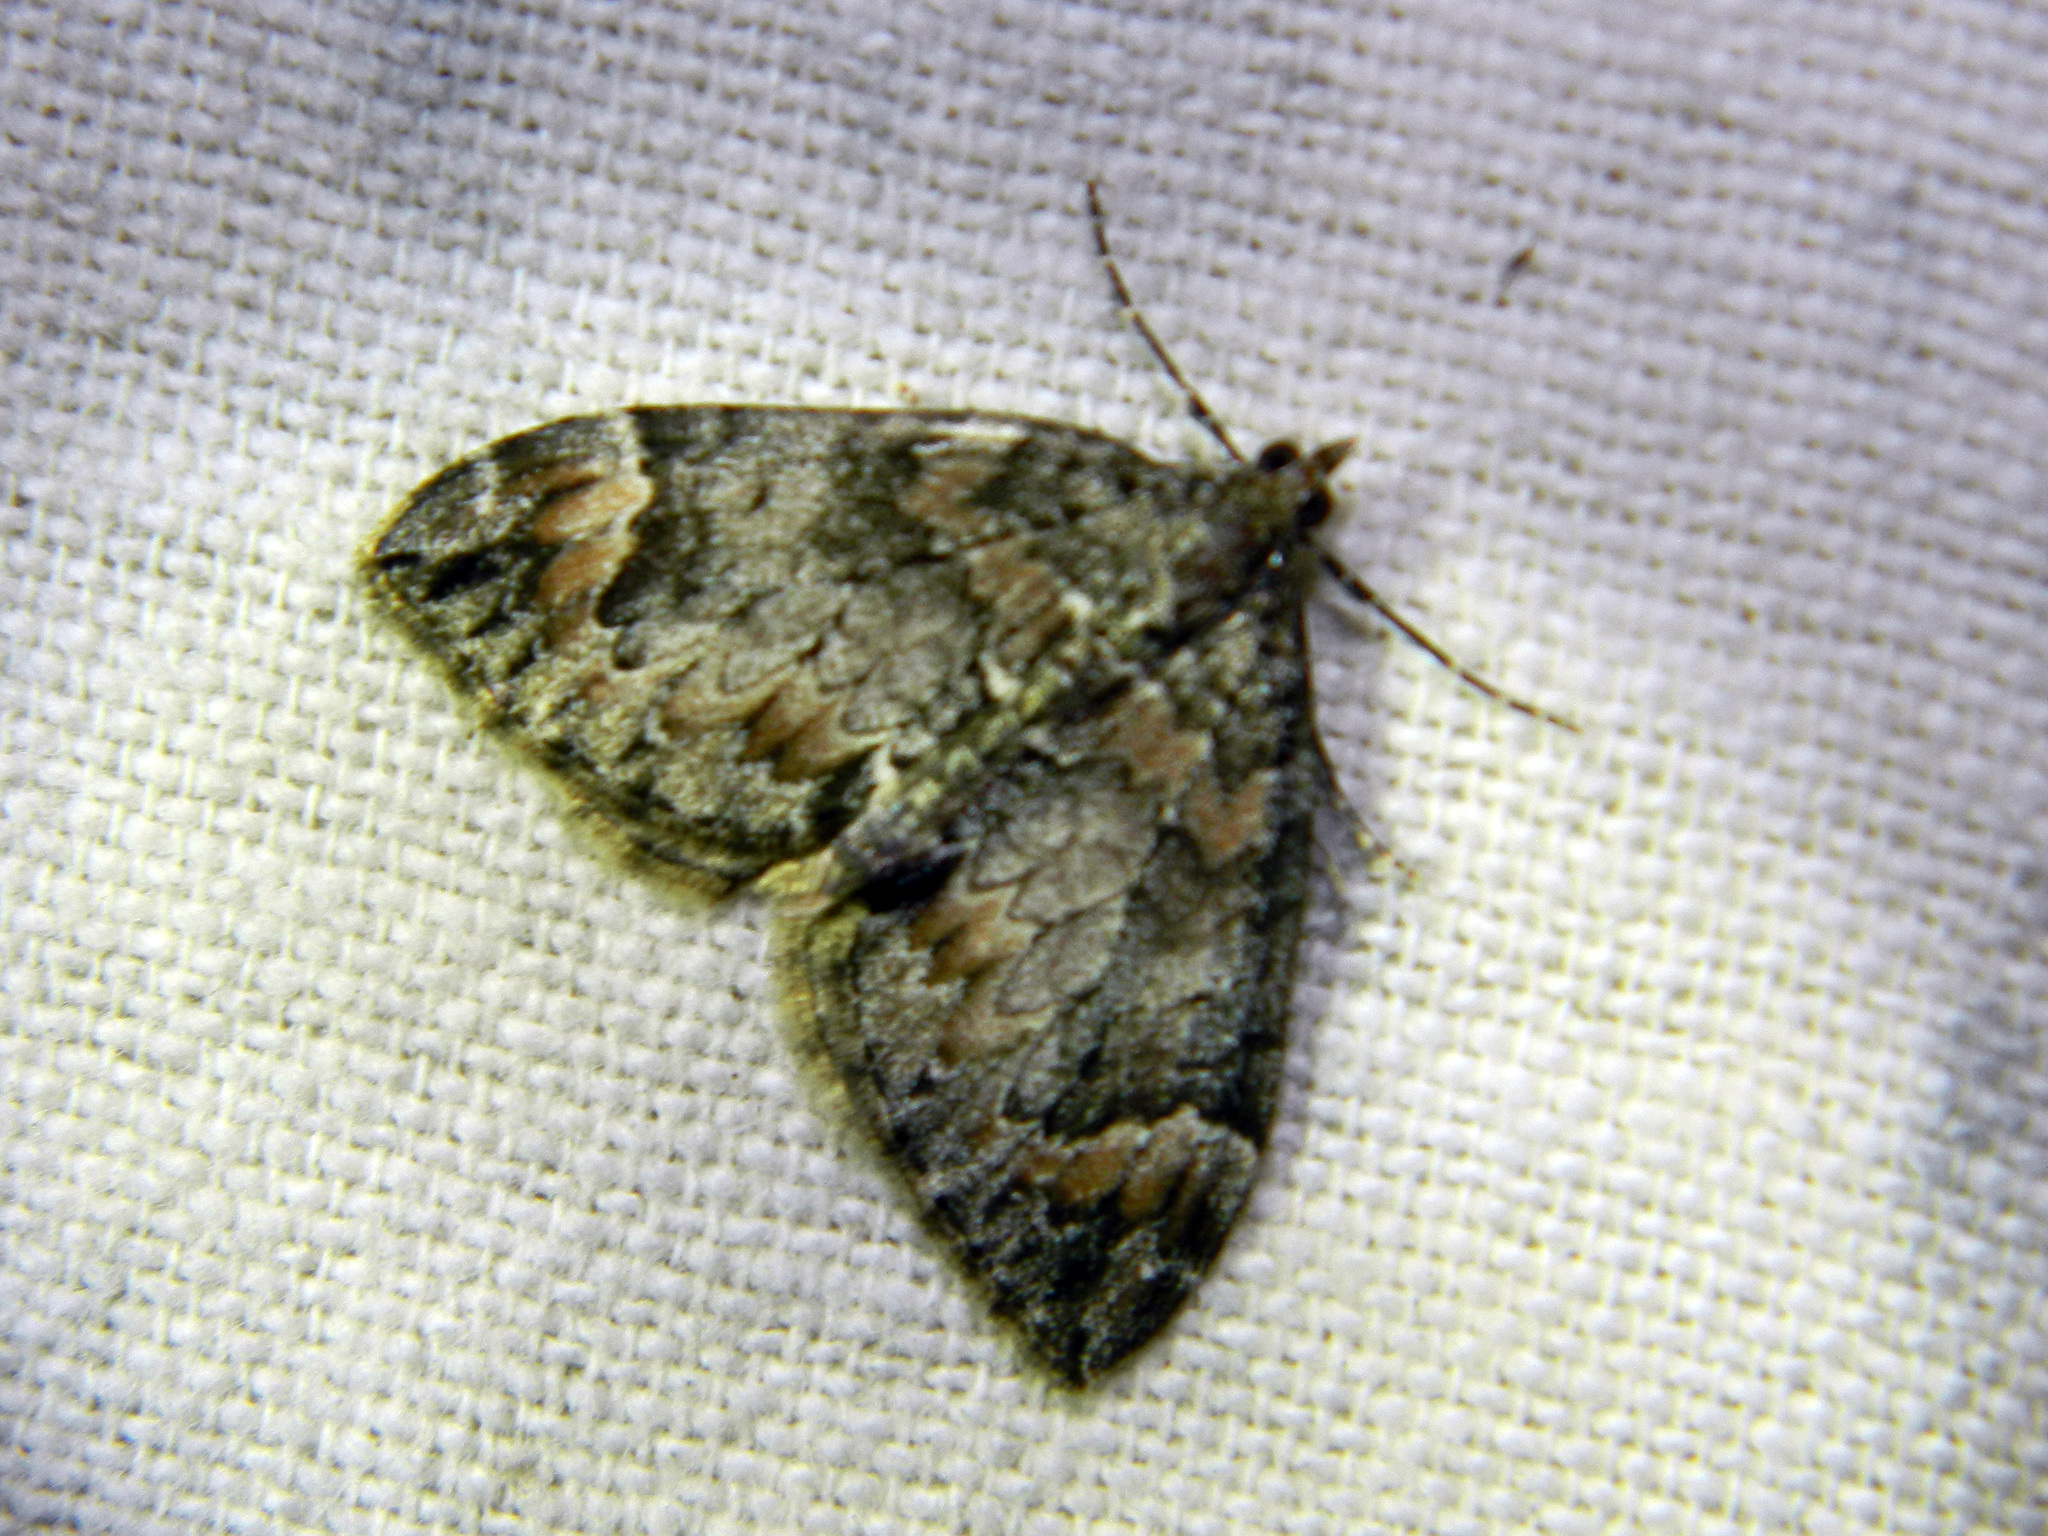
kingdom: Animalia
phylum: Arthropoda
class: Insecta
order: Lepidoptera
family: Geometridae
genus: Dysstroma
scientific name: Dysstroma citrata
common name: Dark marbled carpet
